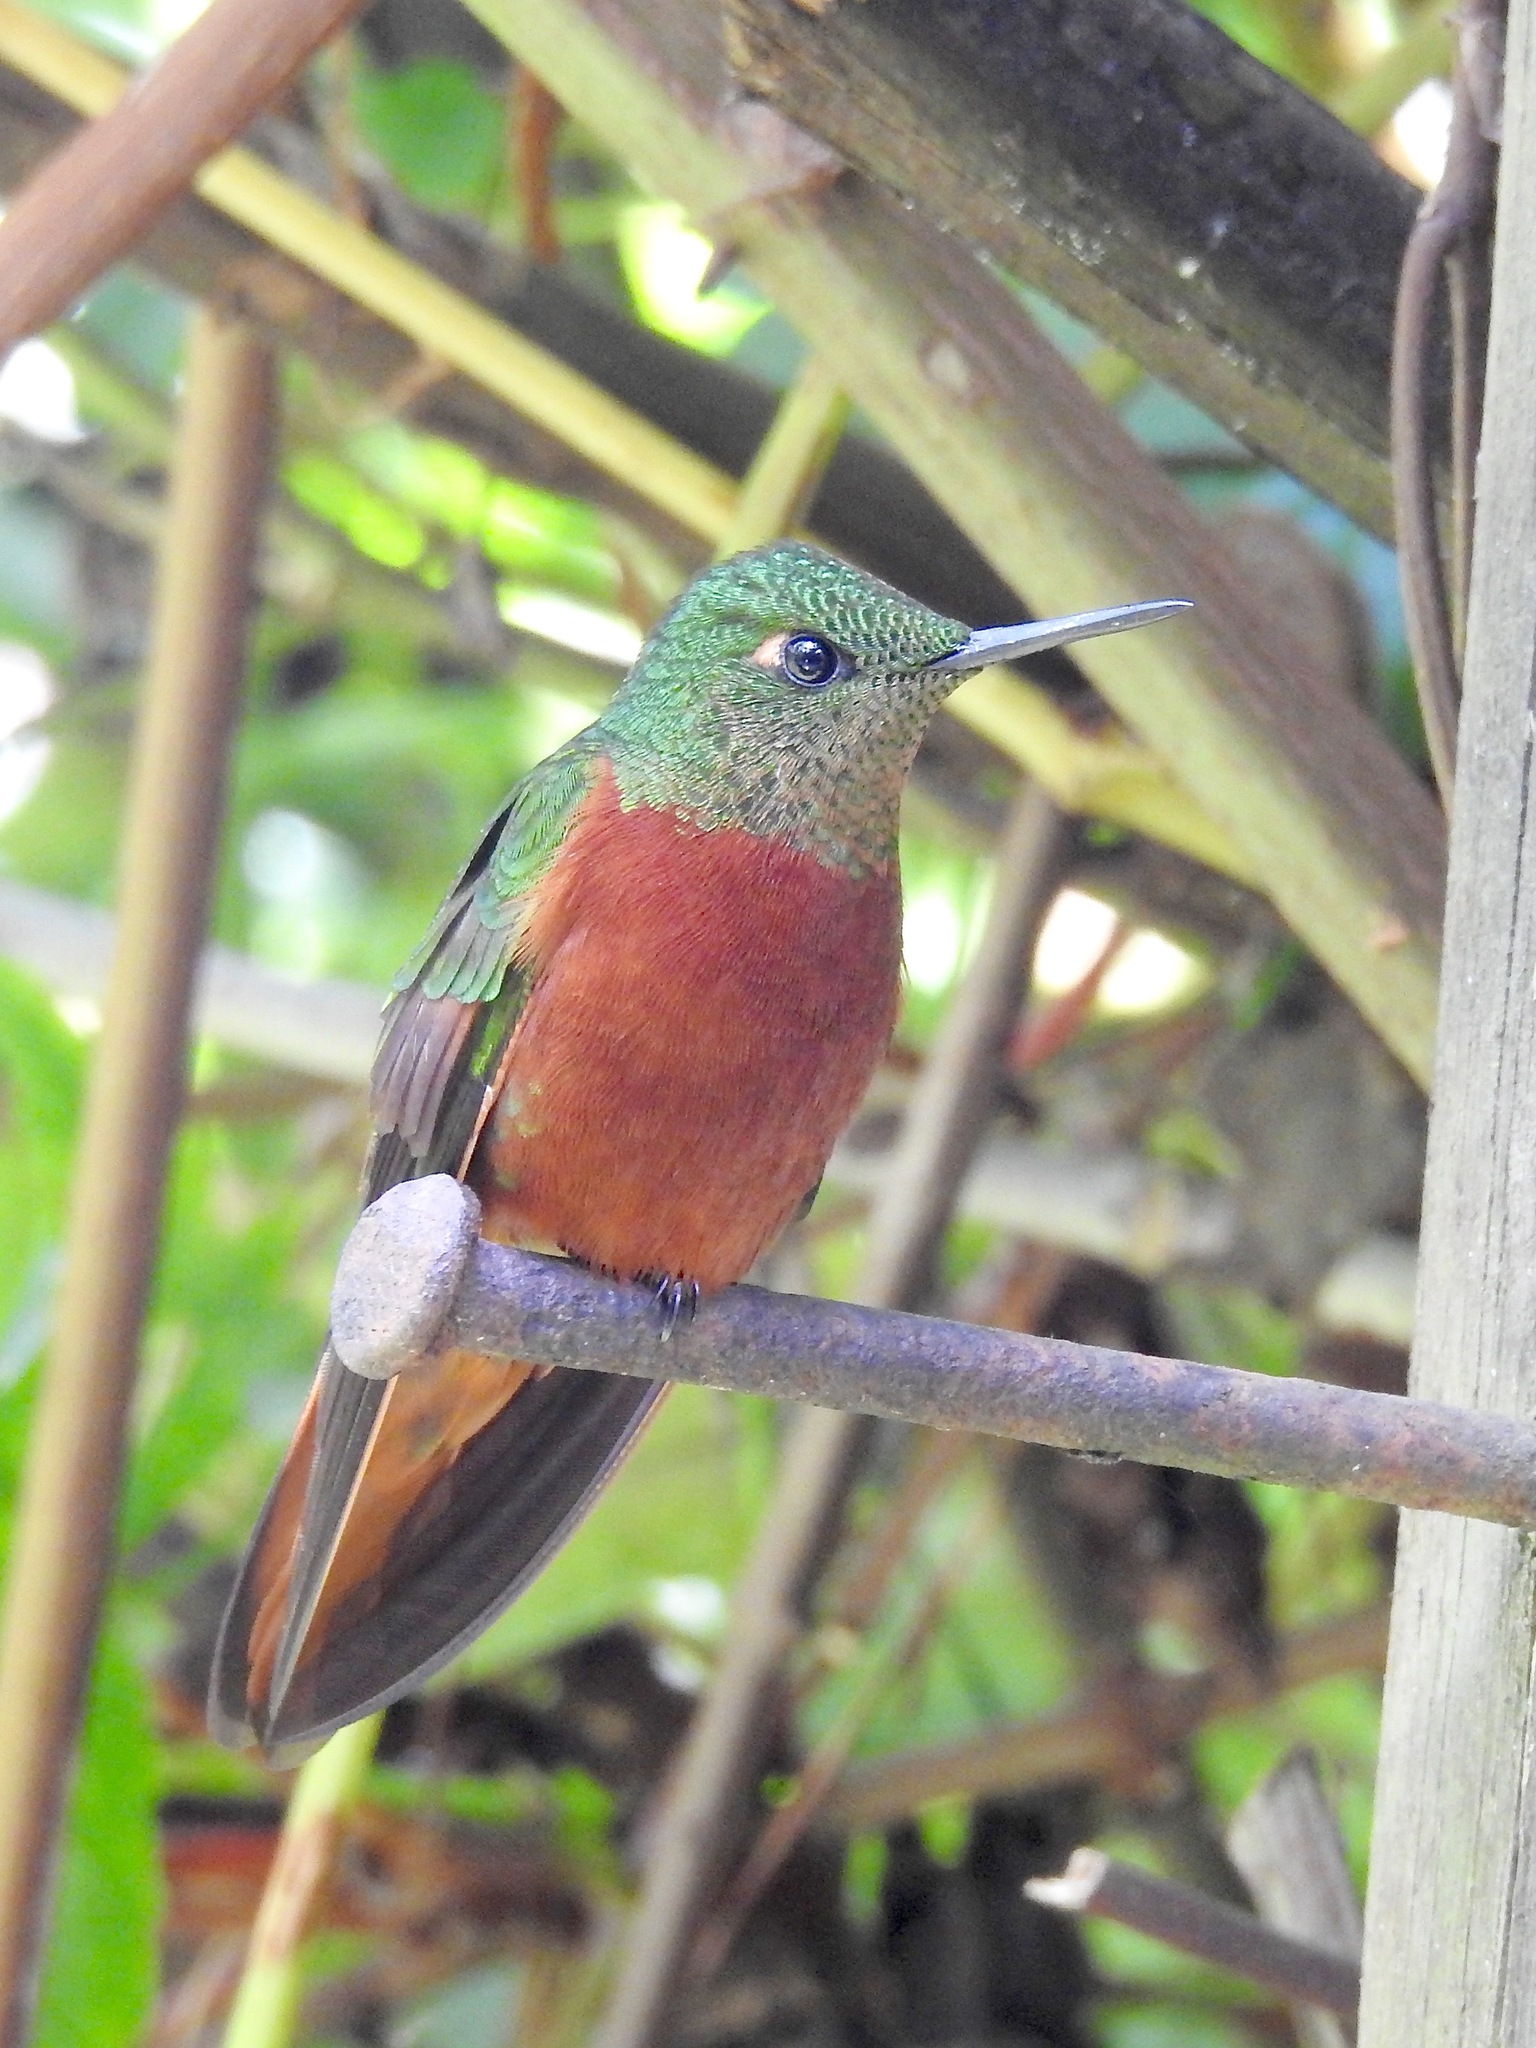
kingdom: Animalia
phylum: Chordata
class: Aves
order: Apodiformes
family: Trochilidae
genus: Boissonneaua
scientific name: Boissonneaua matthewsii
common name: Chestnut-breasted coronet
